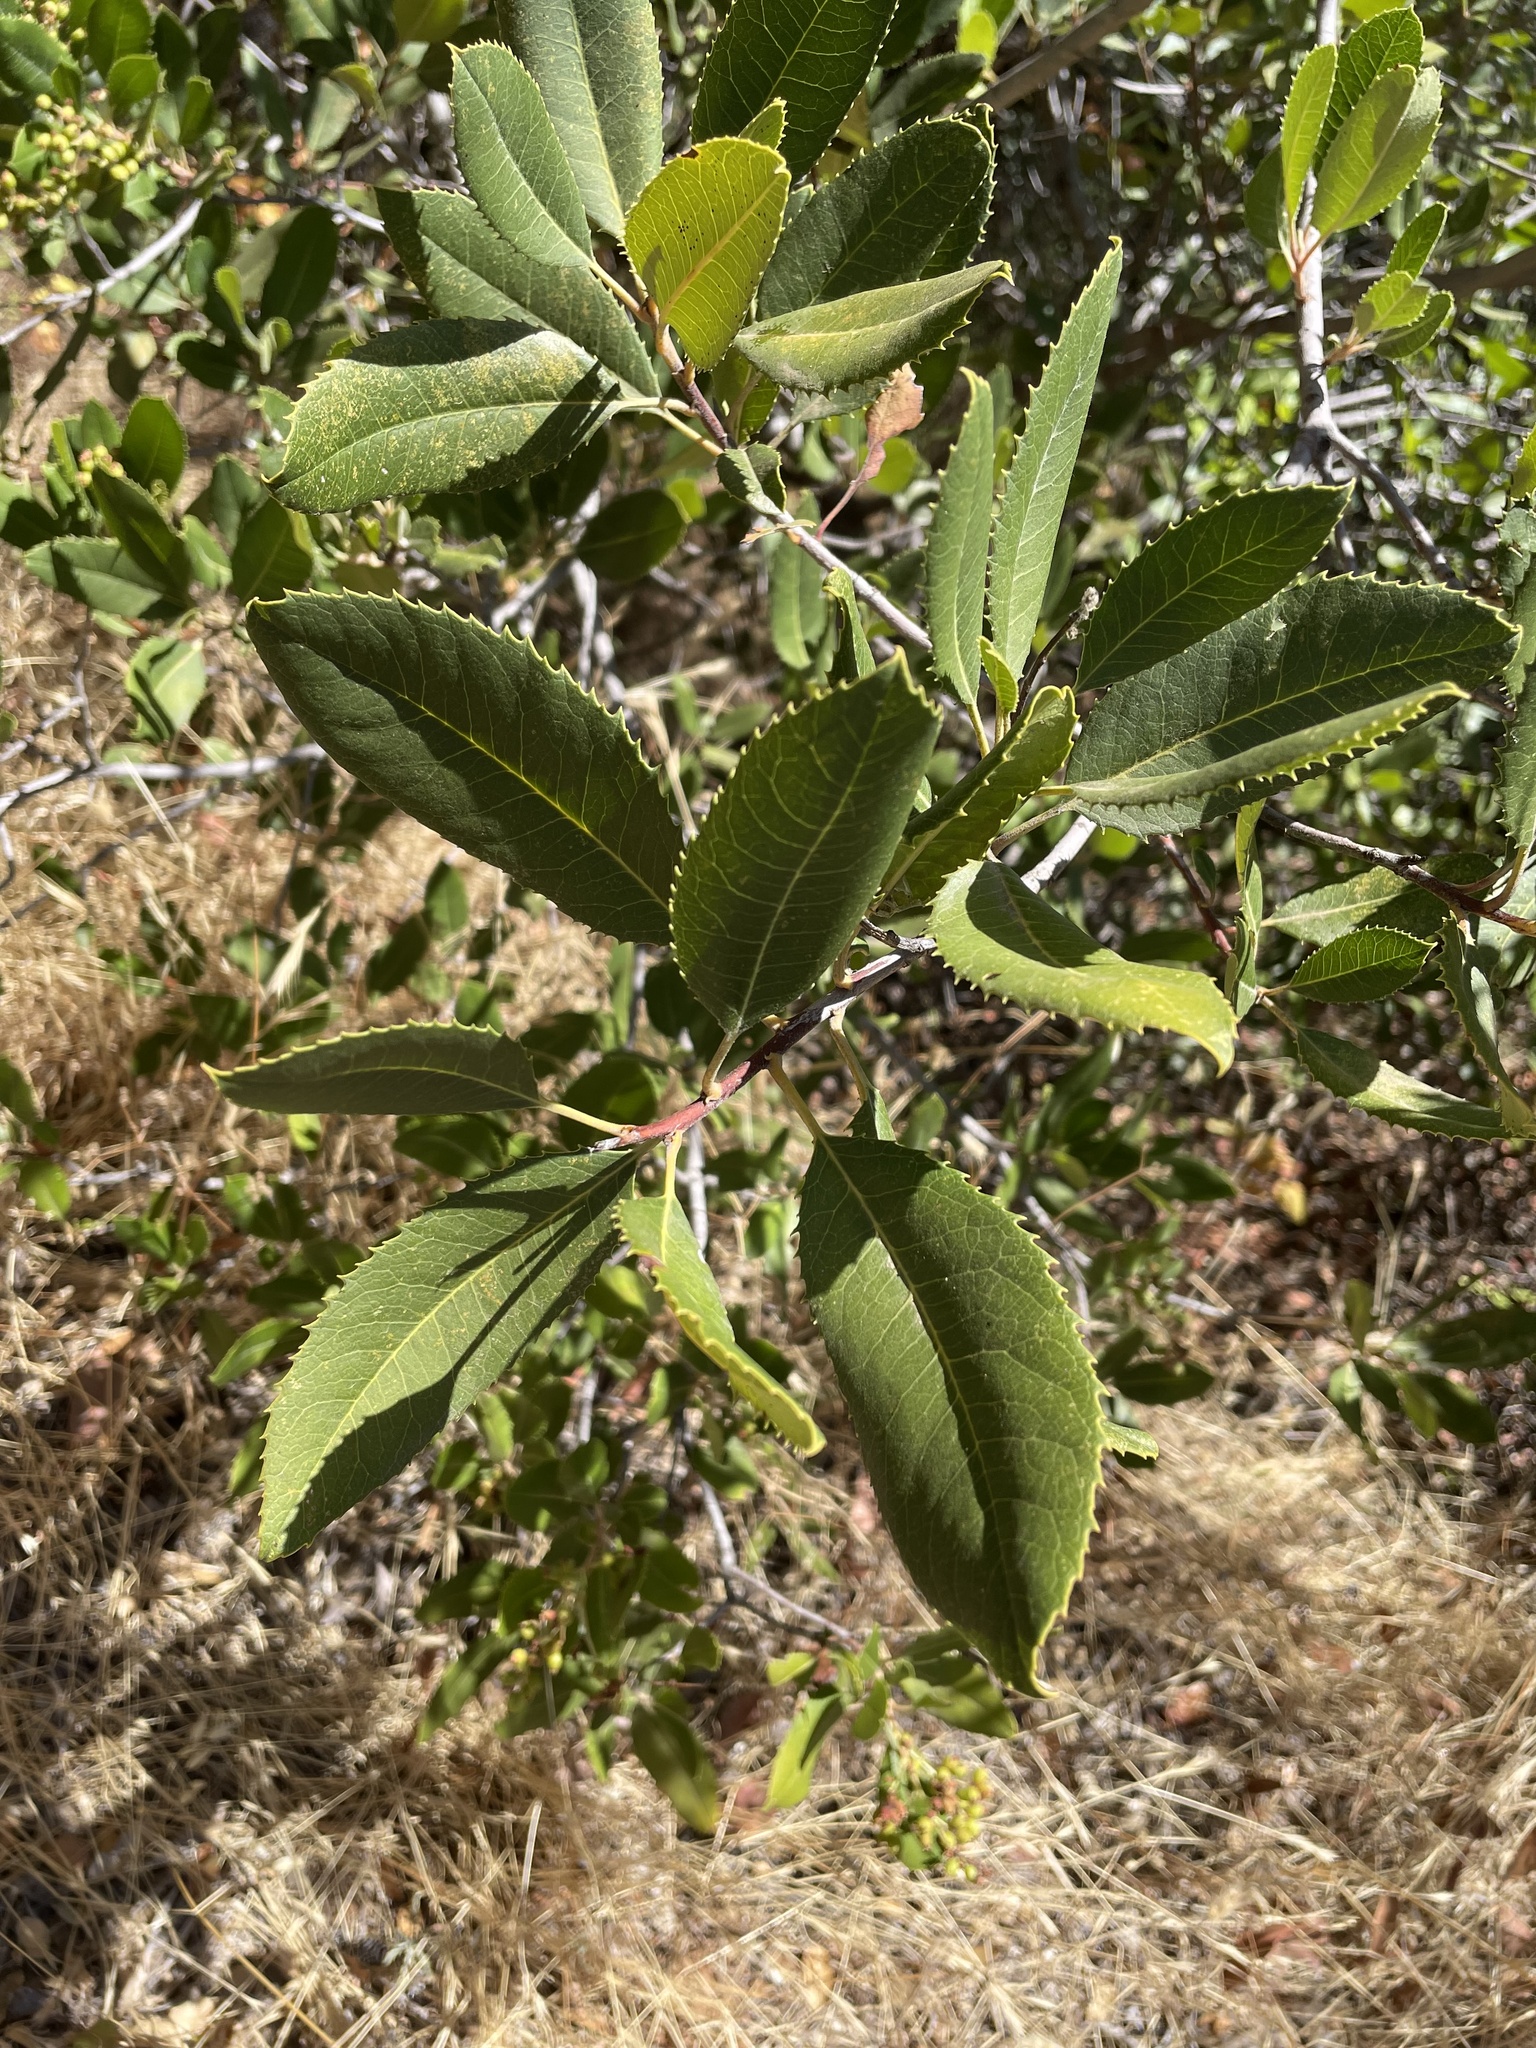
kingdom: Plantae
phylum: Tracheophyta
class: Magnoliopsida
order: Rosales
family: Rosaceae
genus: Heteromeles
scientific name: Heteromeles arbutifolia
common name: California-holly
